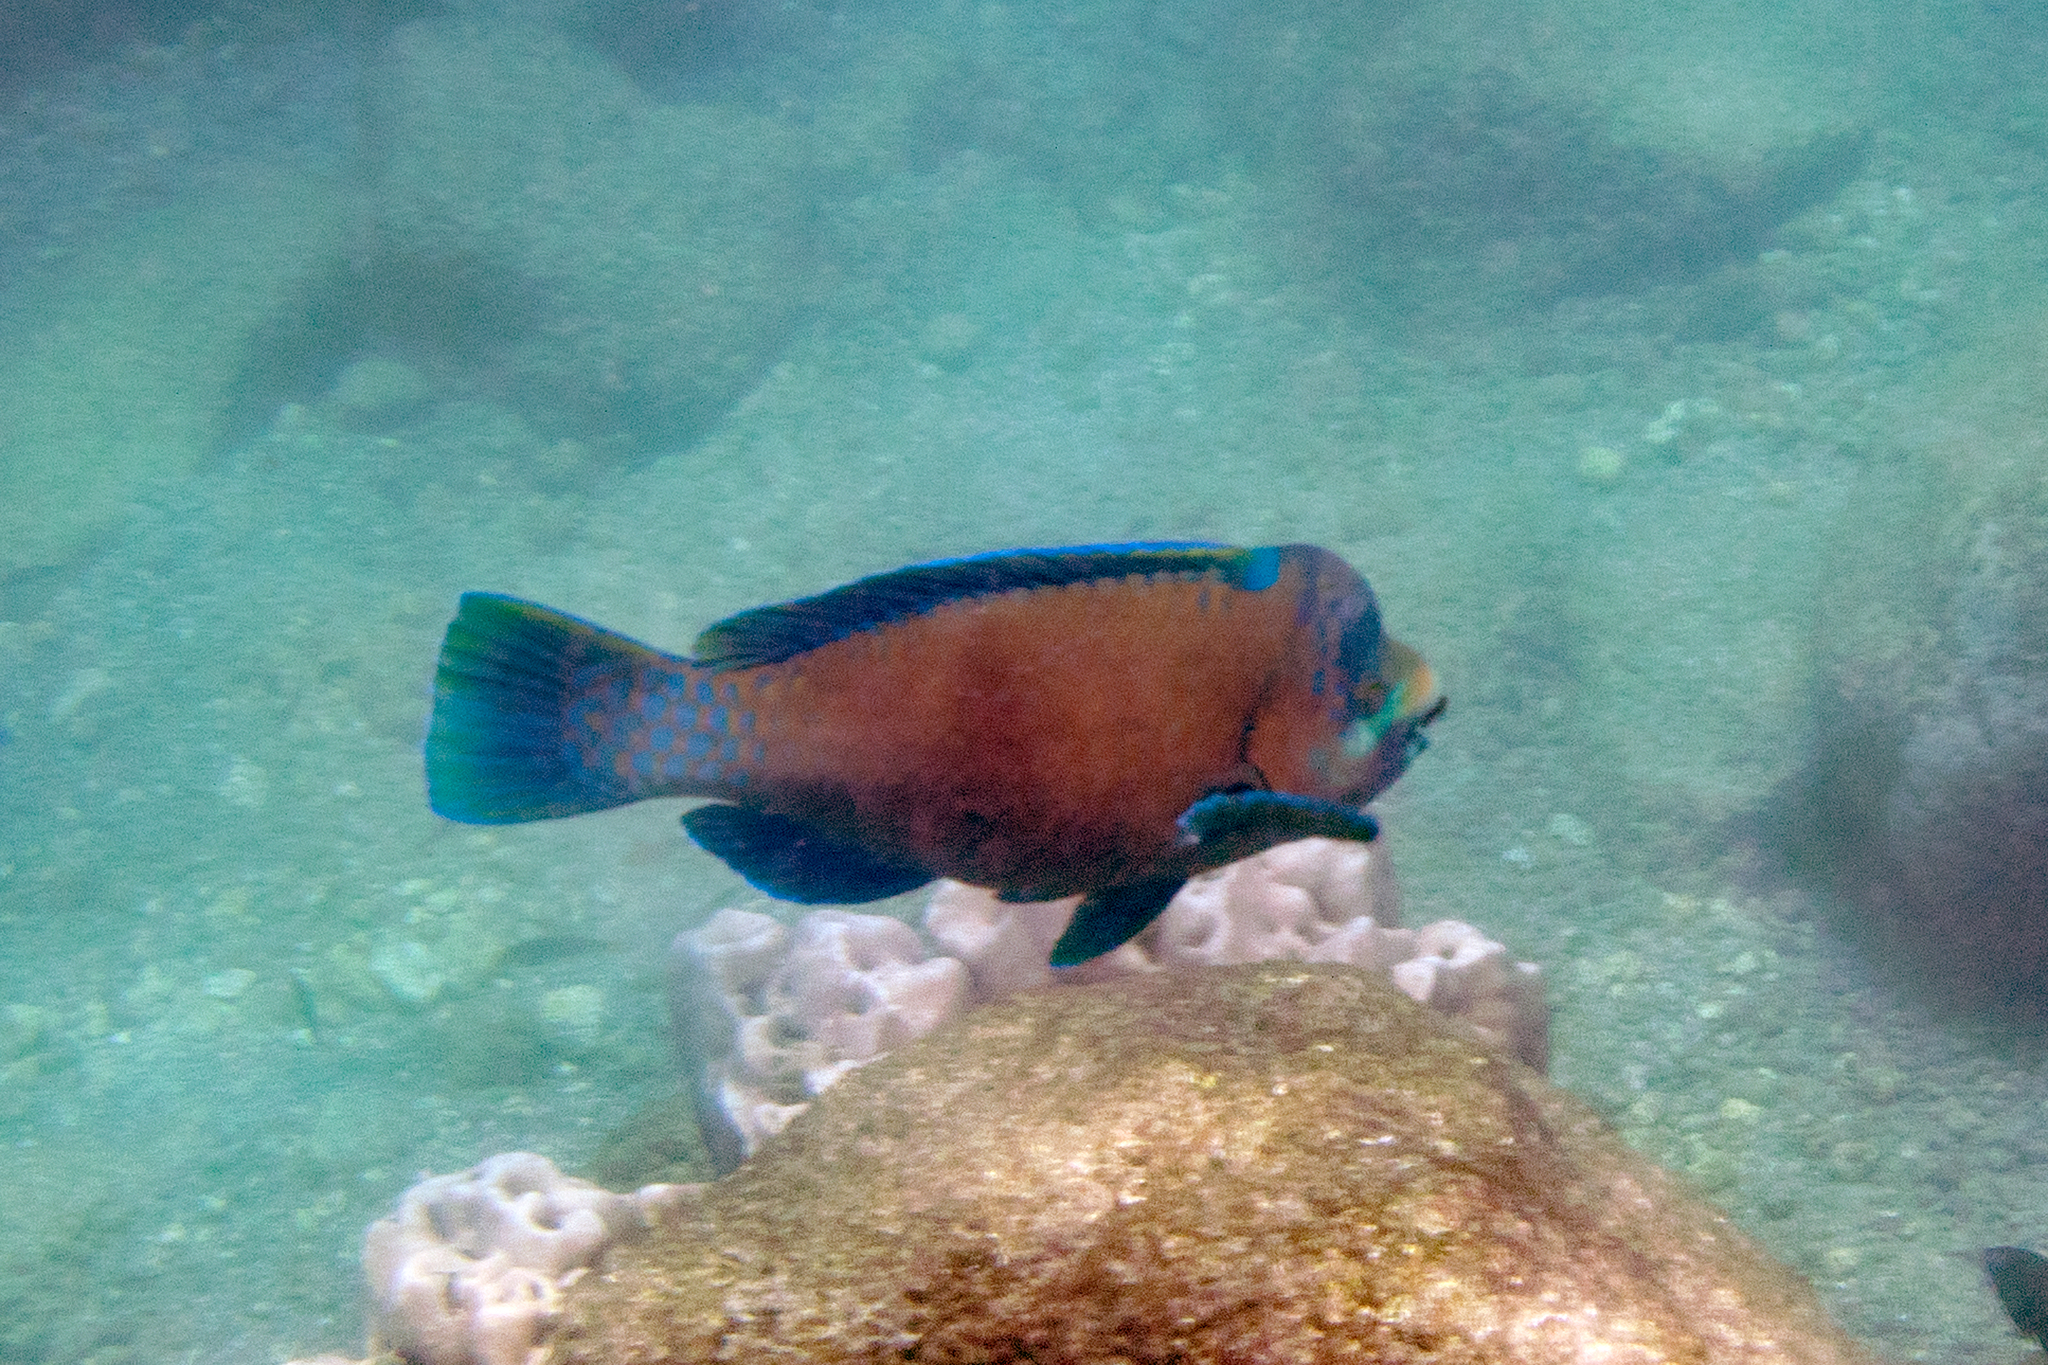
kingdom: Animalia
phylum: Chordata
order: Perciformes
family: Scaridae
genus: Scarus
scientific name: Scarus perrico
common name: Bumphead parrotfish
